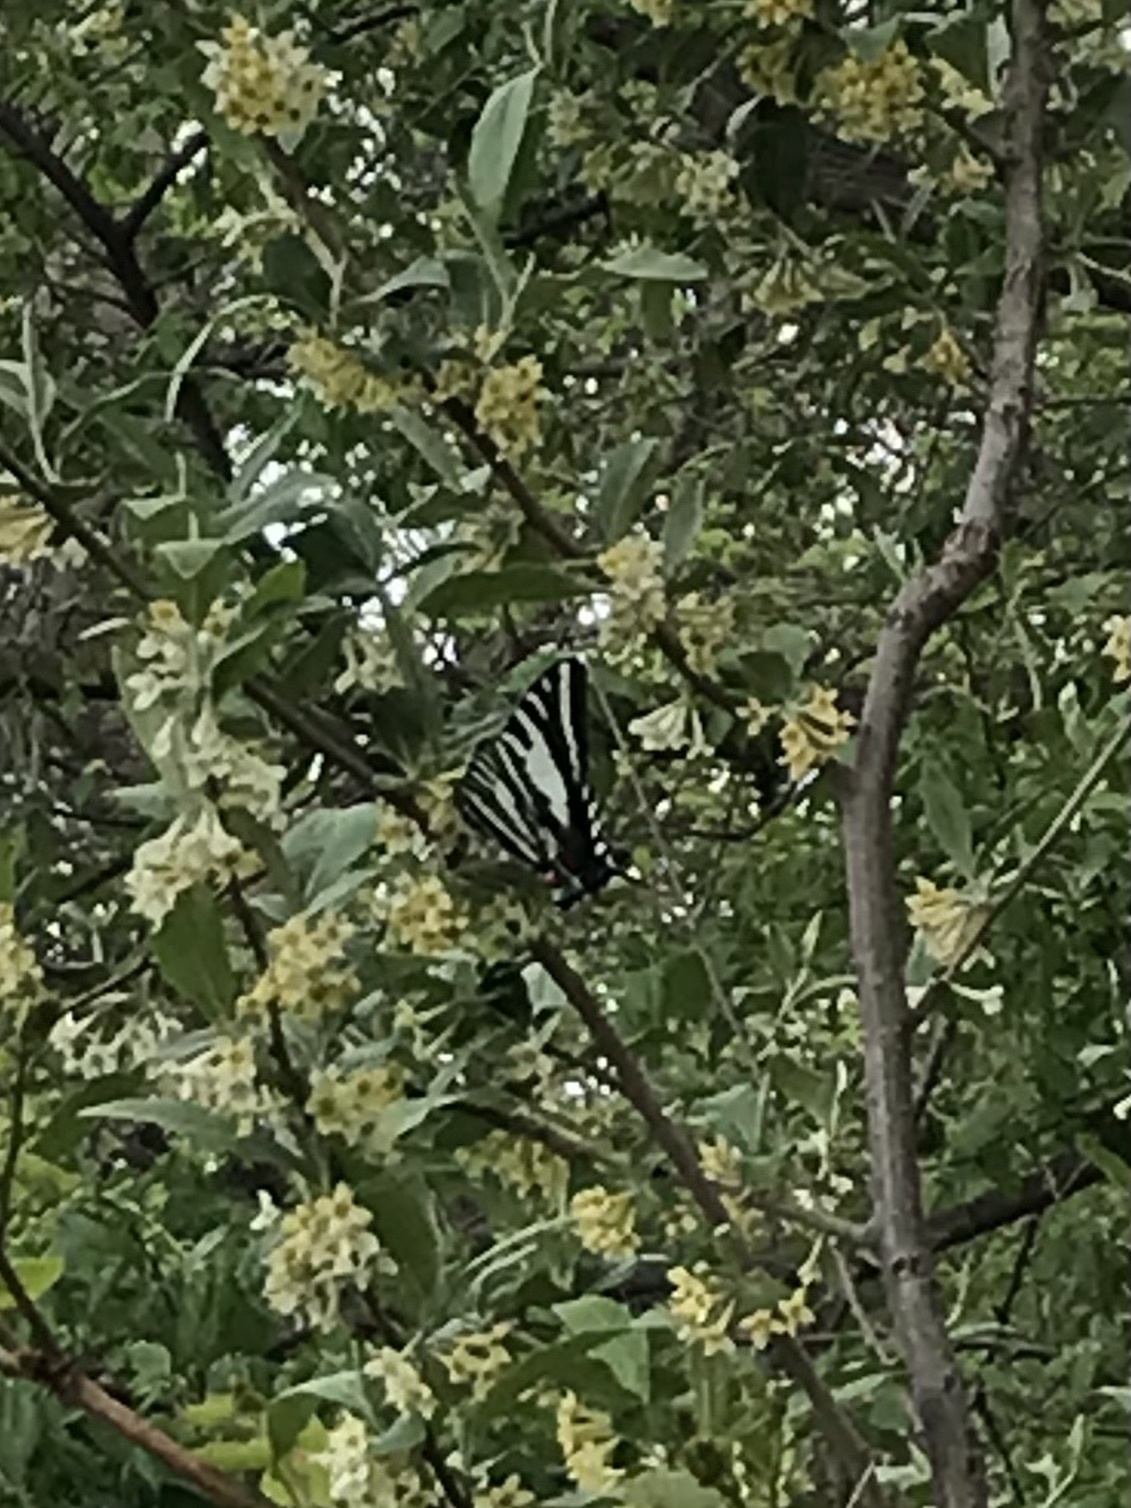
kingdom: Animalia
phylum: Arthropoda
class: Insecta
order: Lepidoptera
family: Papilionidae
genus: Protographium
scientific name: Protographium marcellus
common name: Zebra swallowtail
